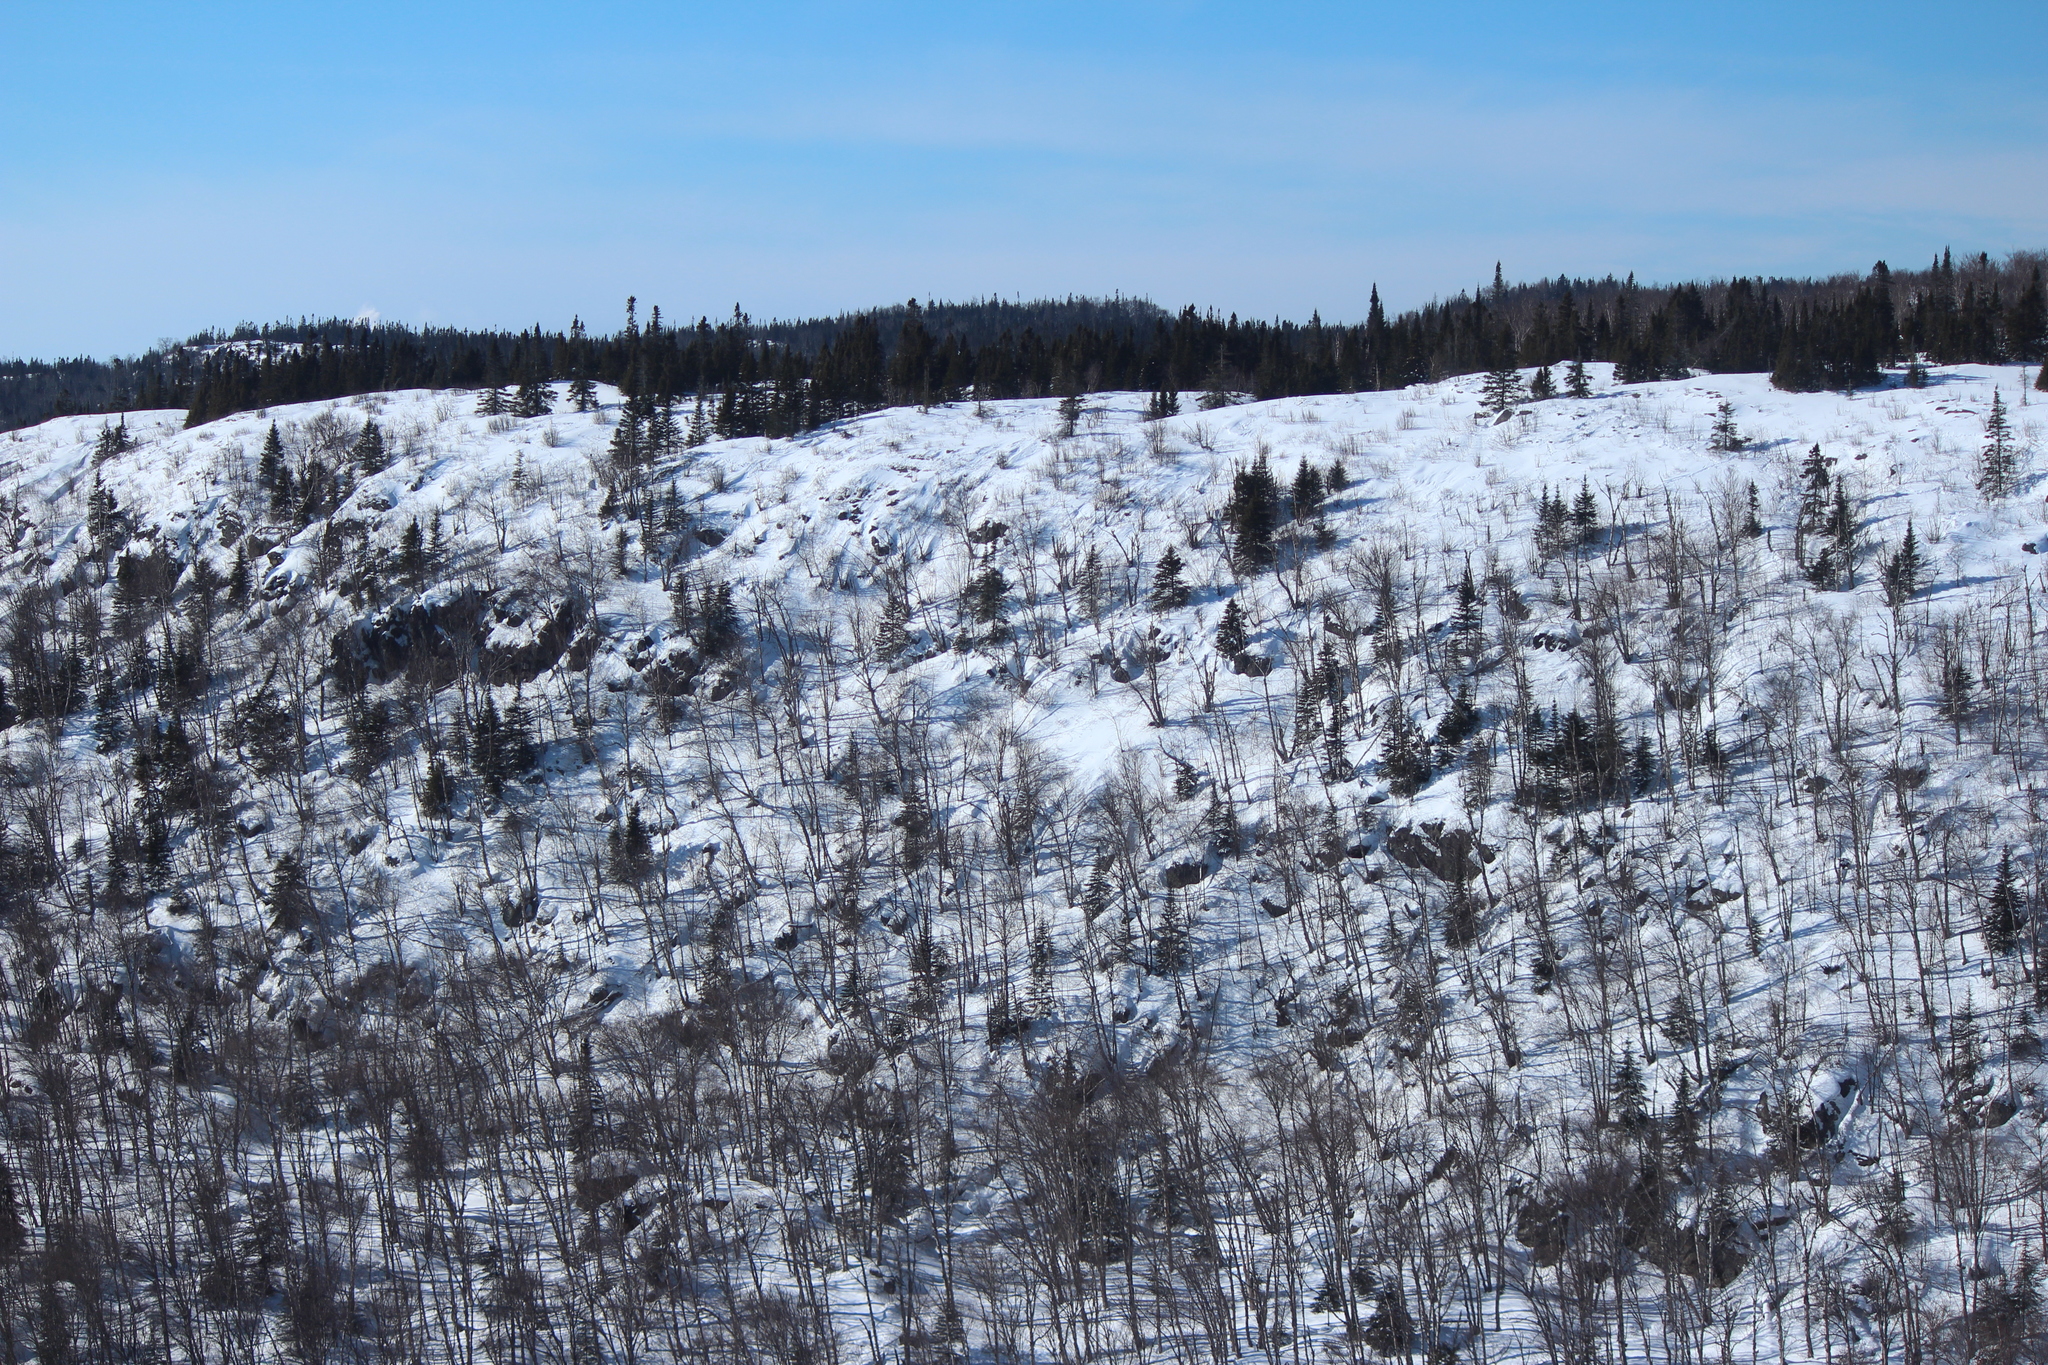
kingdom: Animalia
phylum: Chordata
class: Mammalia
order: Artiodactyla
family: Cervidae
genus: Odocoileus
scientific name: Odocoileus virginianus
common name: White-tailed deer
